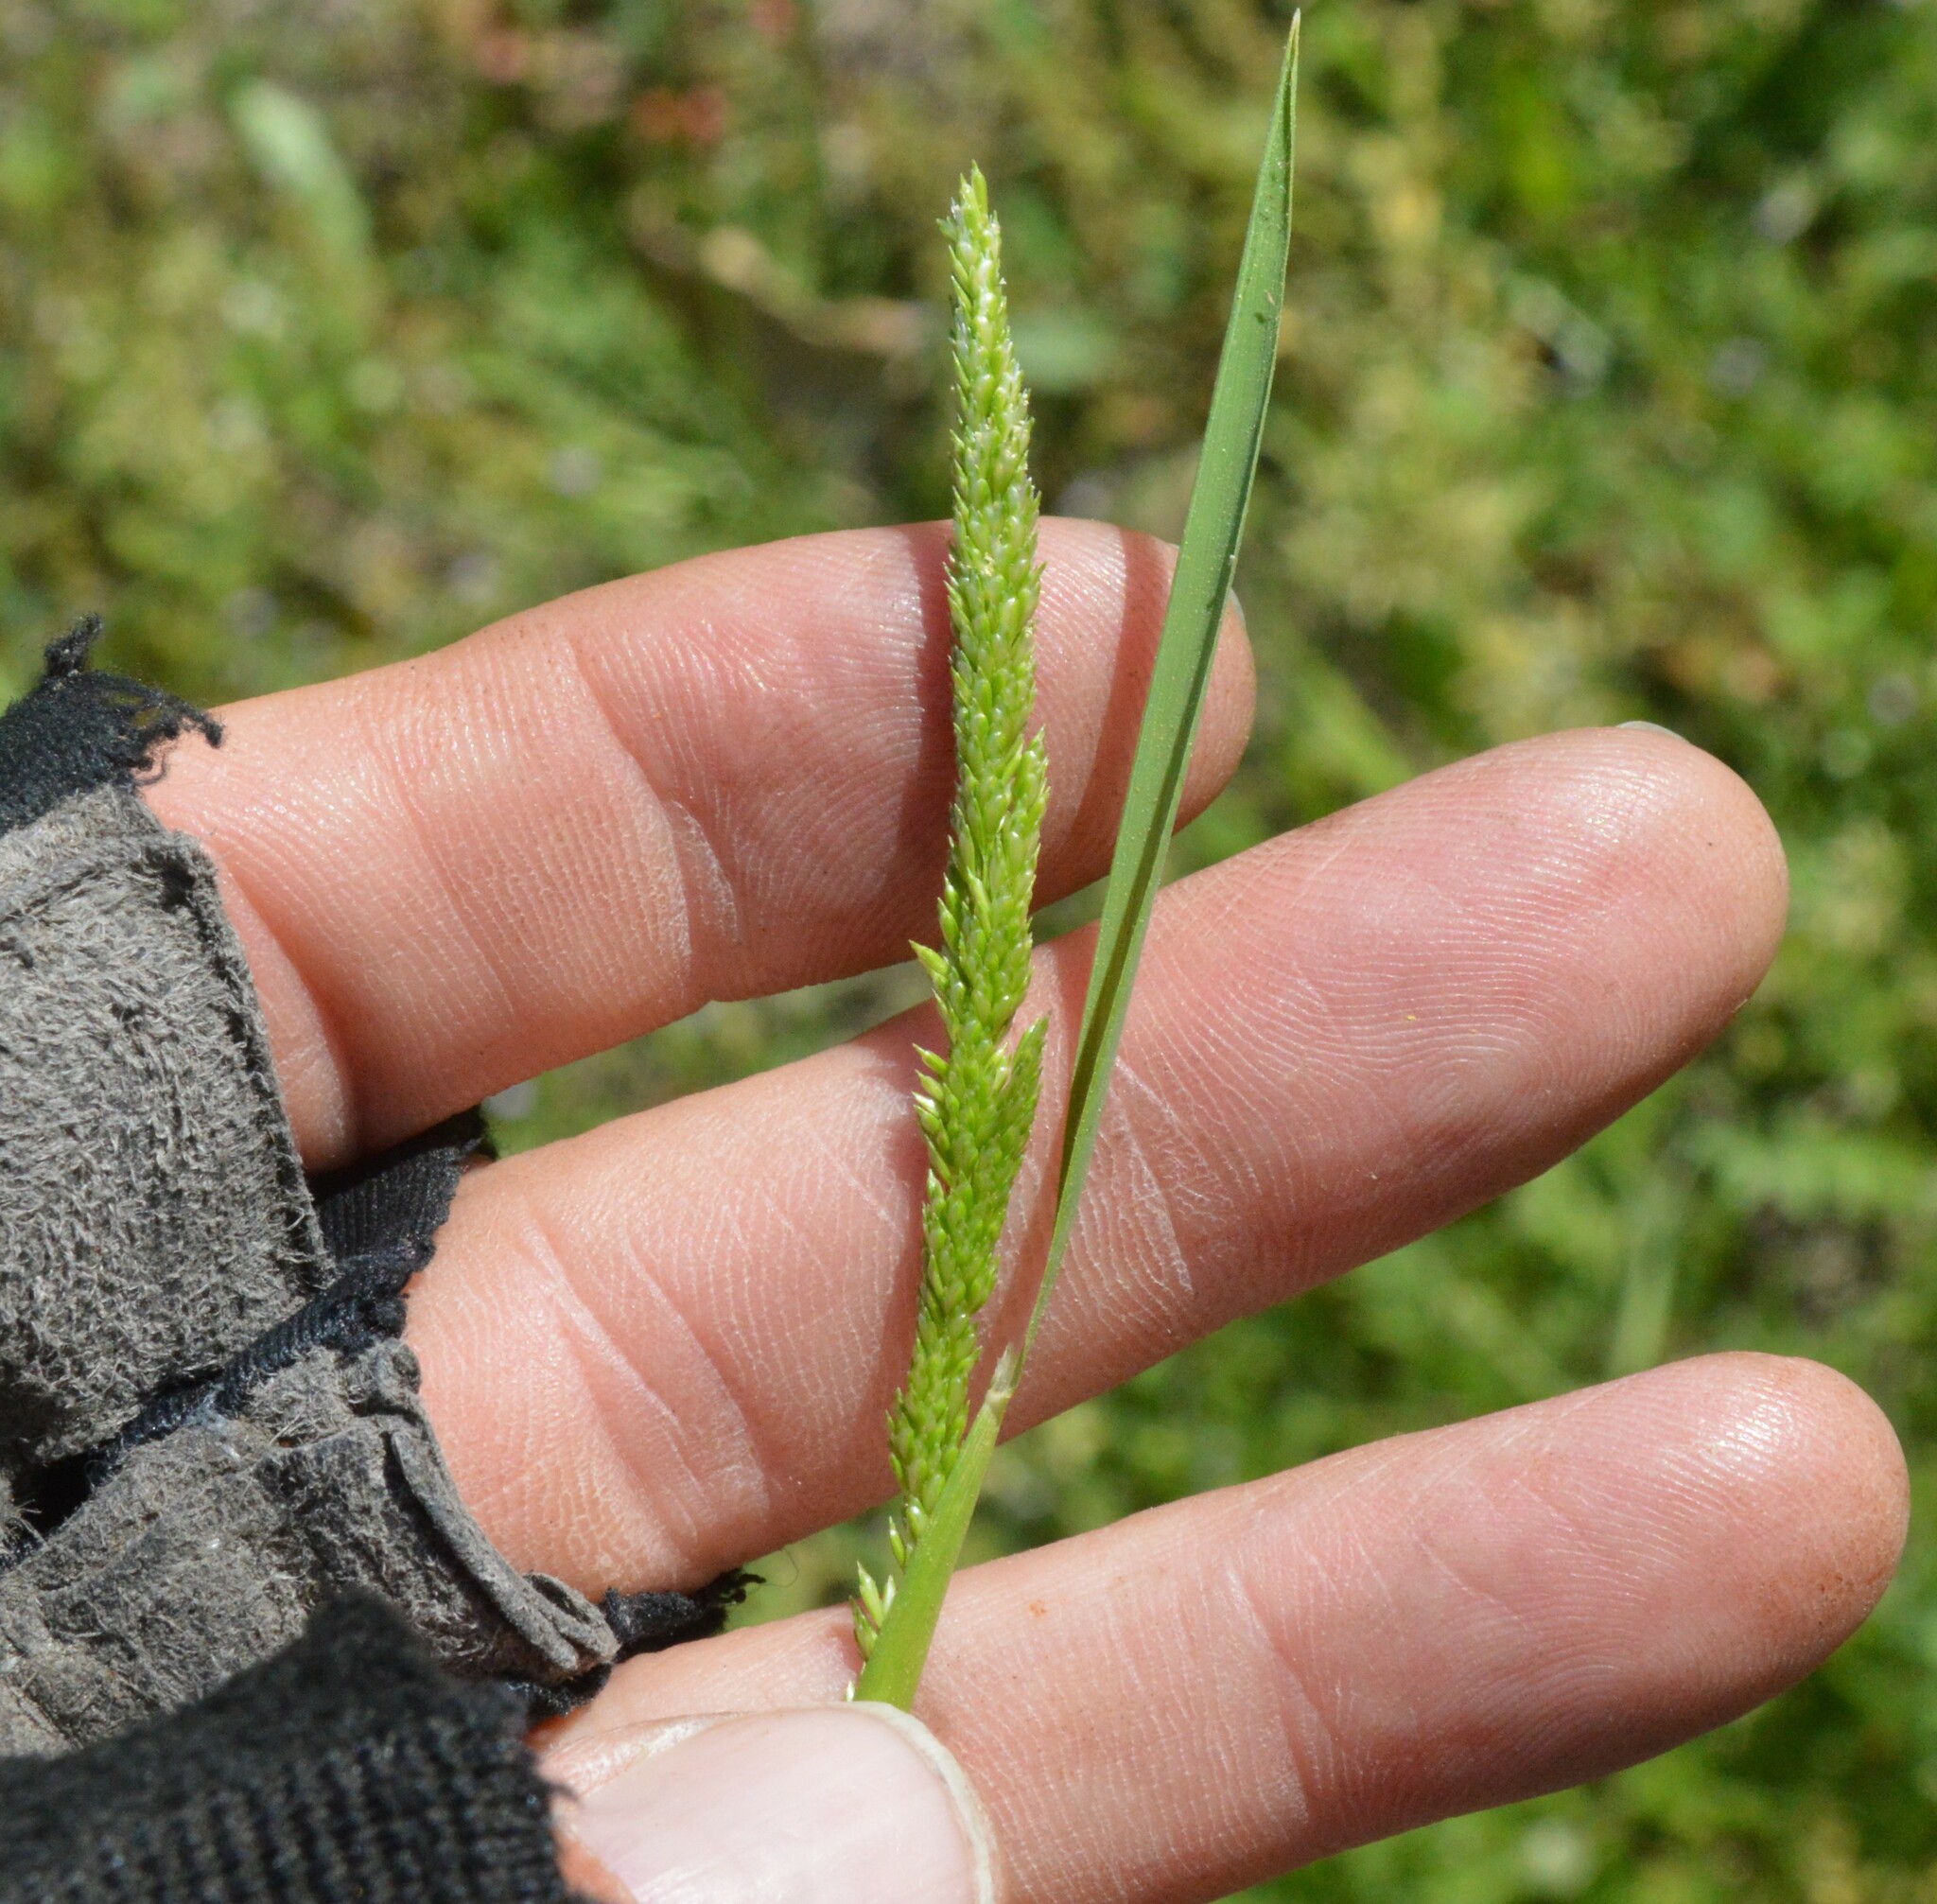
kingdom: Plantae
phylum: Tracheophyta
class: Liliopsida
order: Poales
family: Poaceae
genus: Sphenopholis
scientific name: Sphenopholis obtusata
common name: Prairie grass
